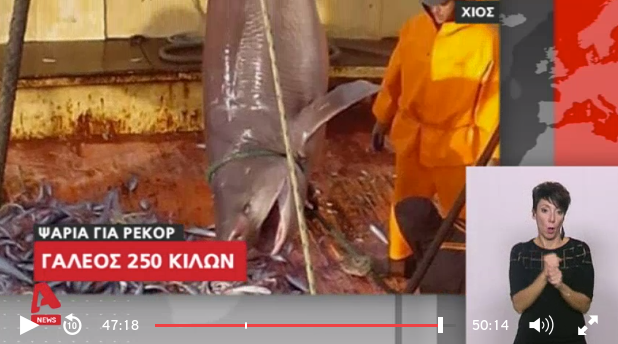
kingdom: Animalia
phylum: Chordata
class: Elasmobranchii
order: Hexanchiformes
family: Hexanchidae
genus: Hexanchus
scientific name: Hexanchus griseus
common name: Bluntnose sixgill shark
